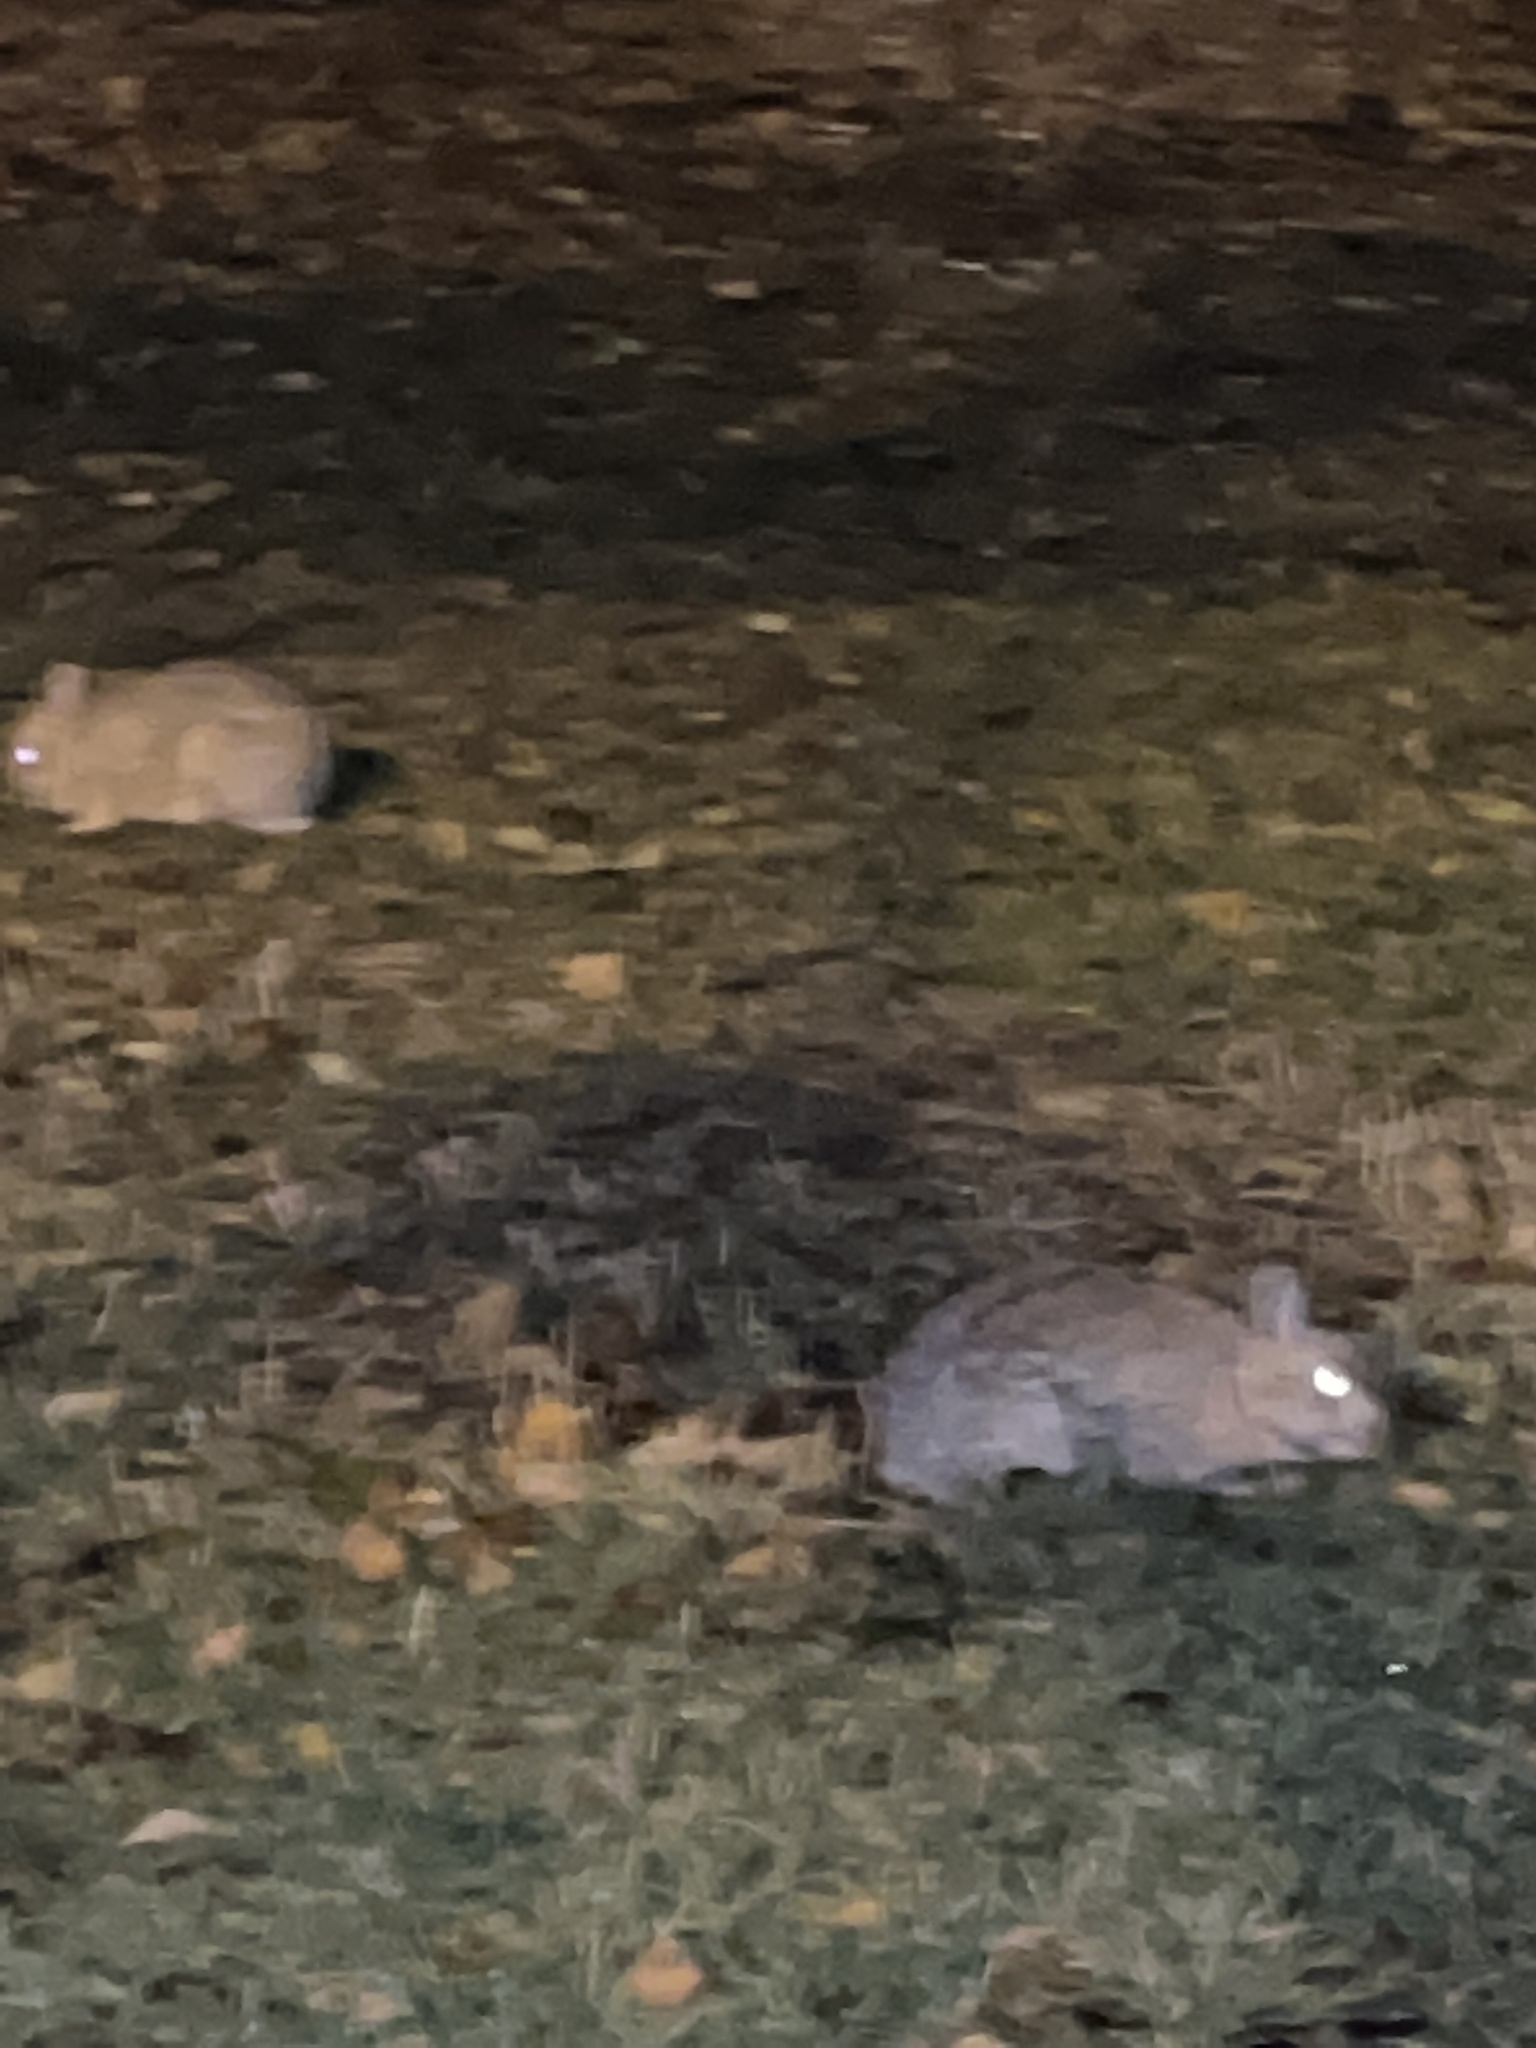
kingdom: Animalia
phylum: Chordata
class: Mammalia
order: Lagomorpha
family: Leporidae
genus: Sylvilagus
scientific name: Sylvilagus floridanus
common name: Eastern cottontail
